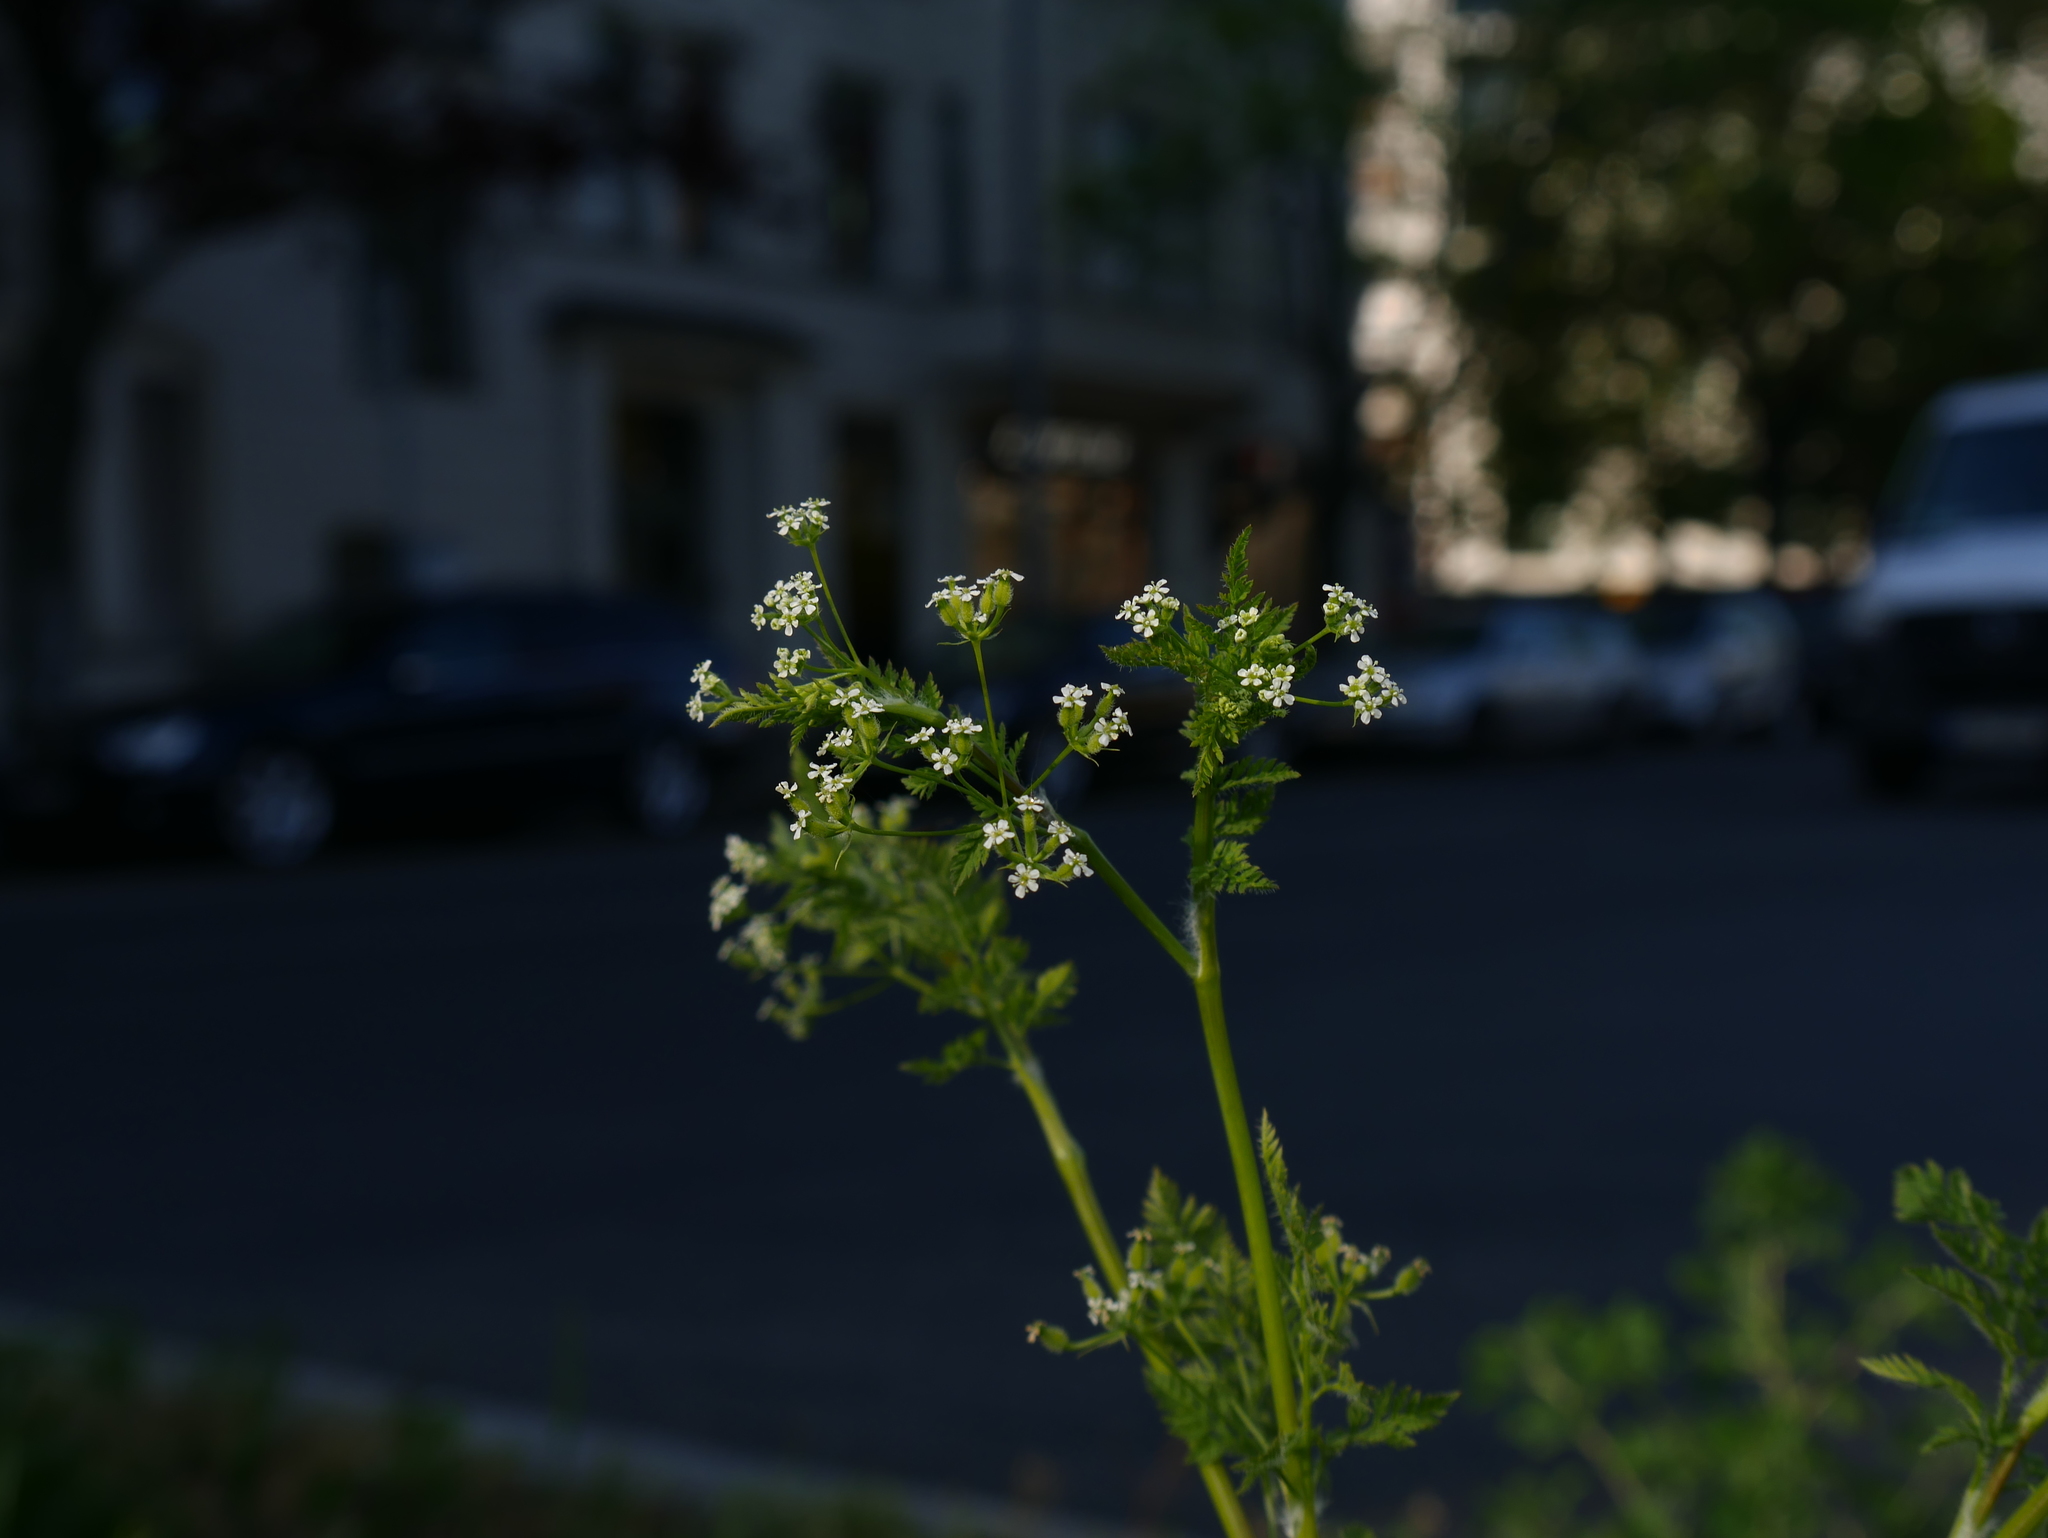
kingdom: Plantae
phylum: Tracheophyta
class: Magnoliopsida
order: Apiales
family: Apiaceae
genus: Anthriscus
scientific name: Anthriscus caucalis
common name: Bur chervil
